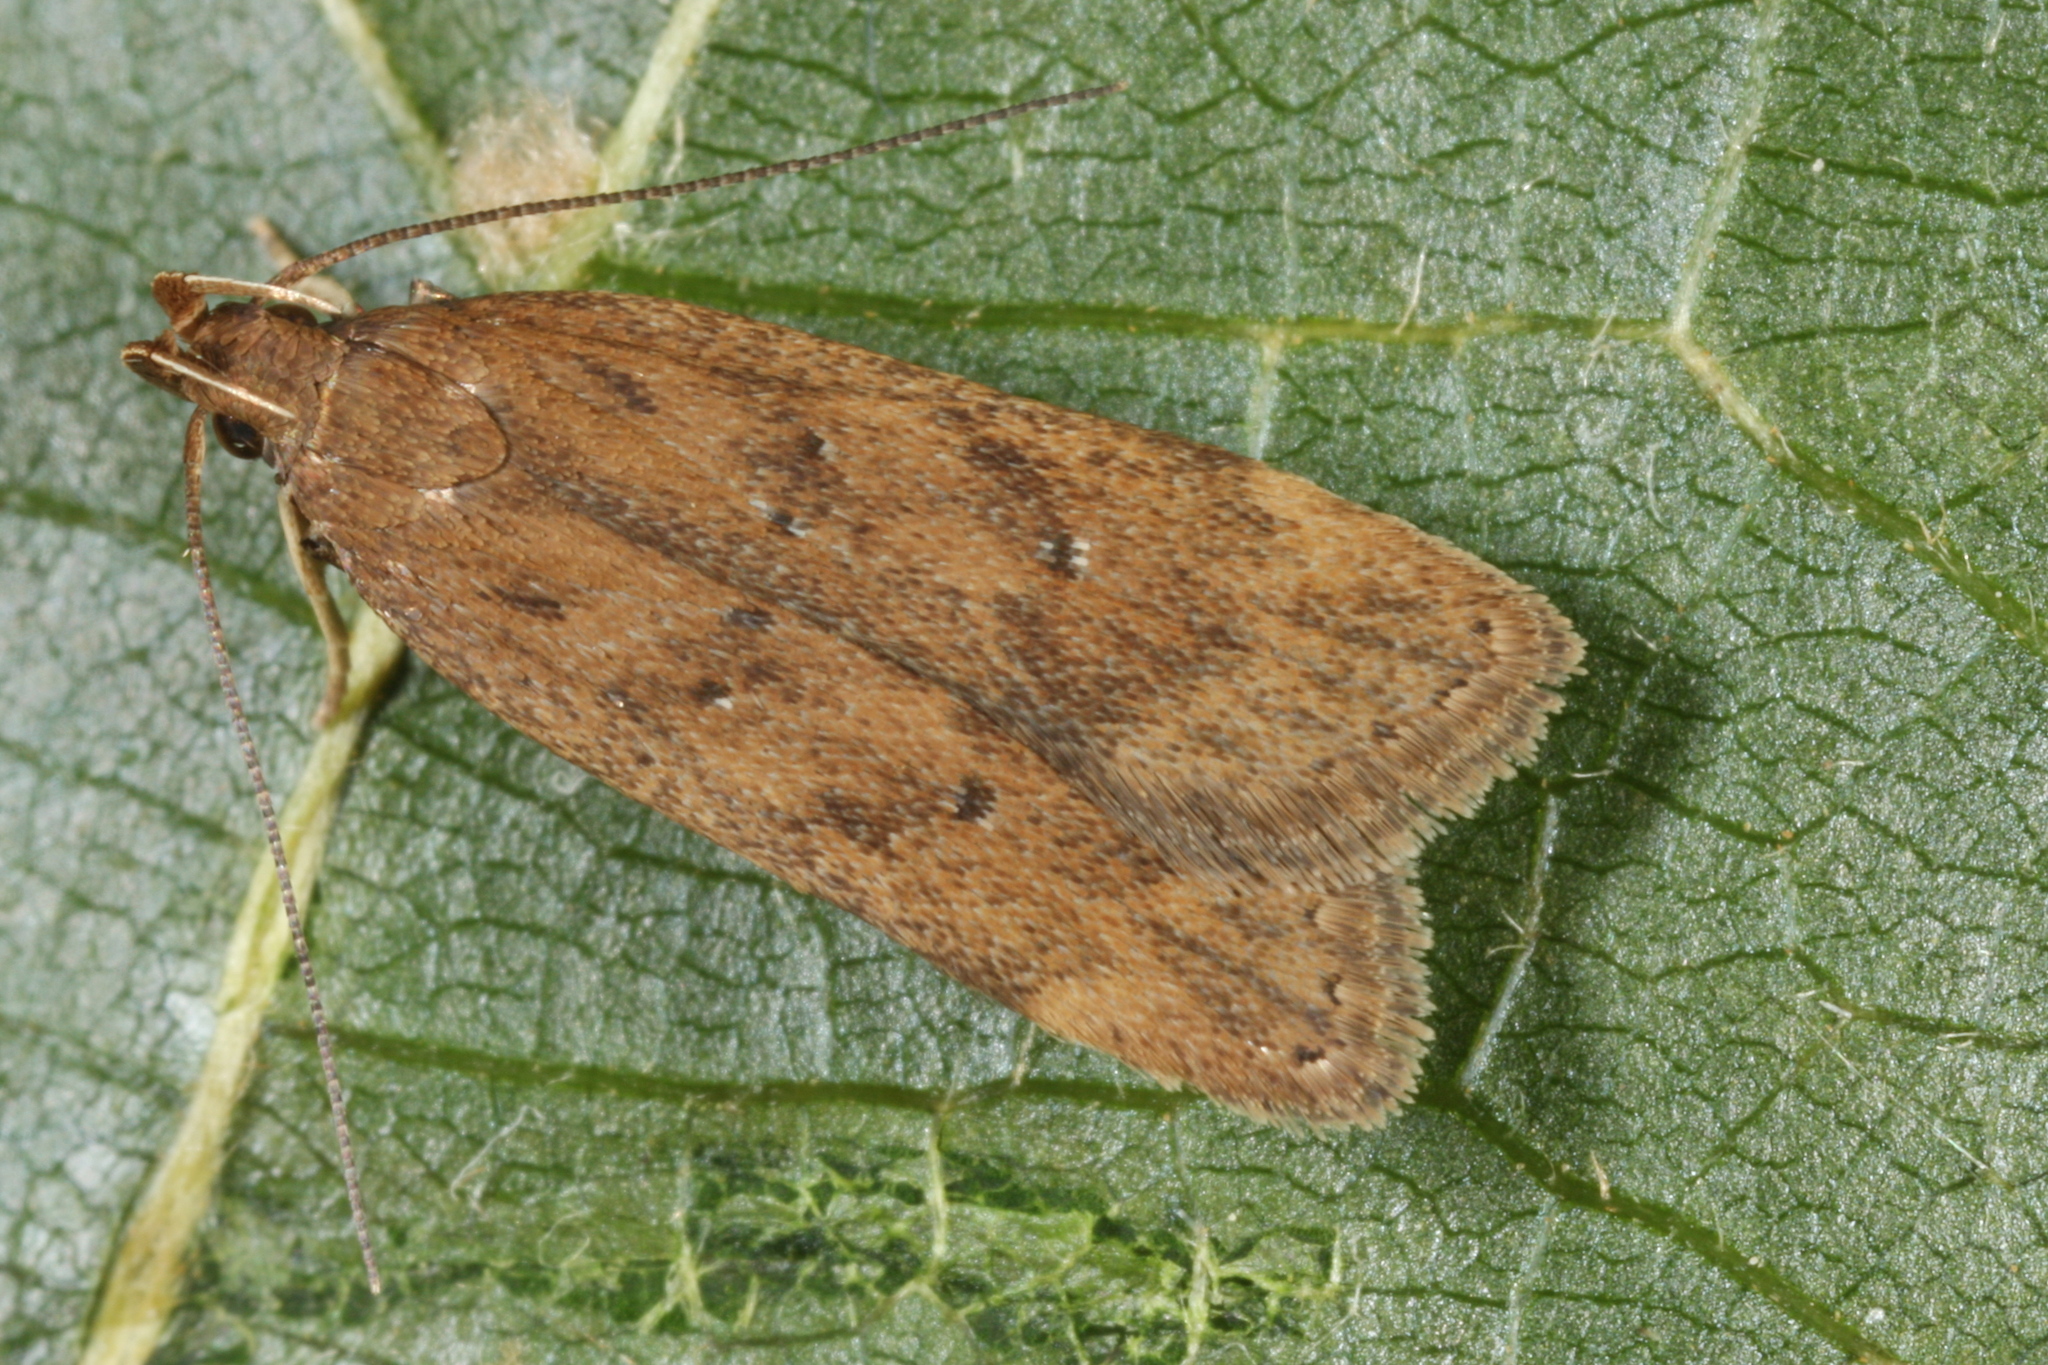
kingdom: Animalia
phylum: Arthropoda
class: Insecta
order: Lepidoptera
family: Gelechiidae
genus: Helcystogramma
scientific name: Helcystogramma lutatella
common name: Clay crest
